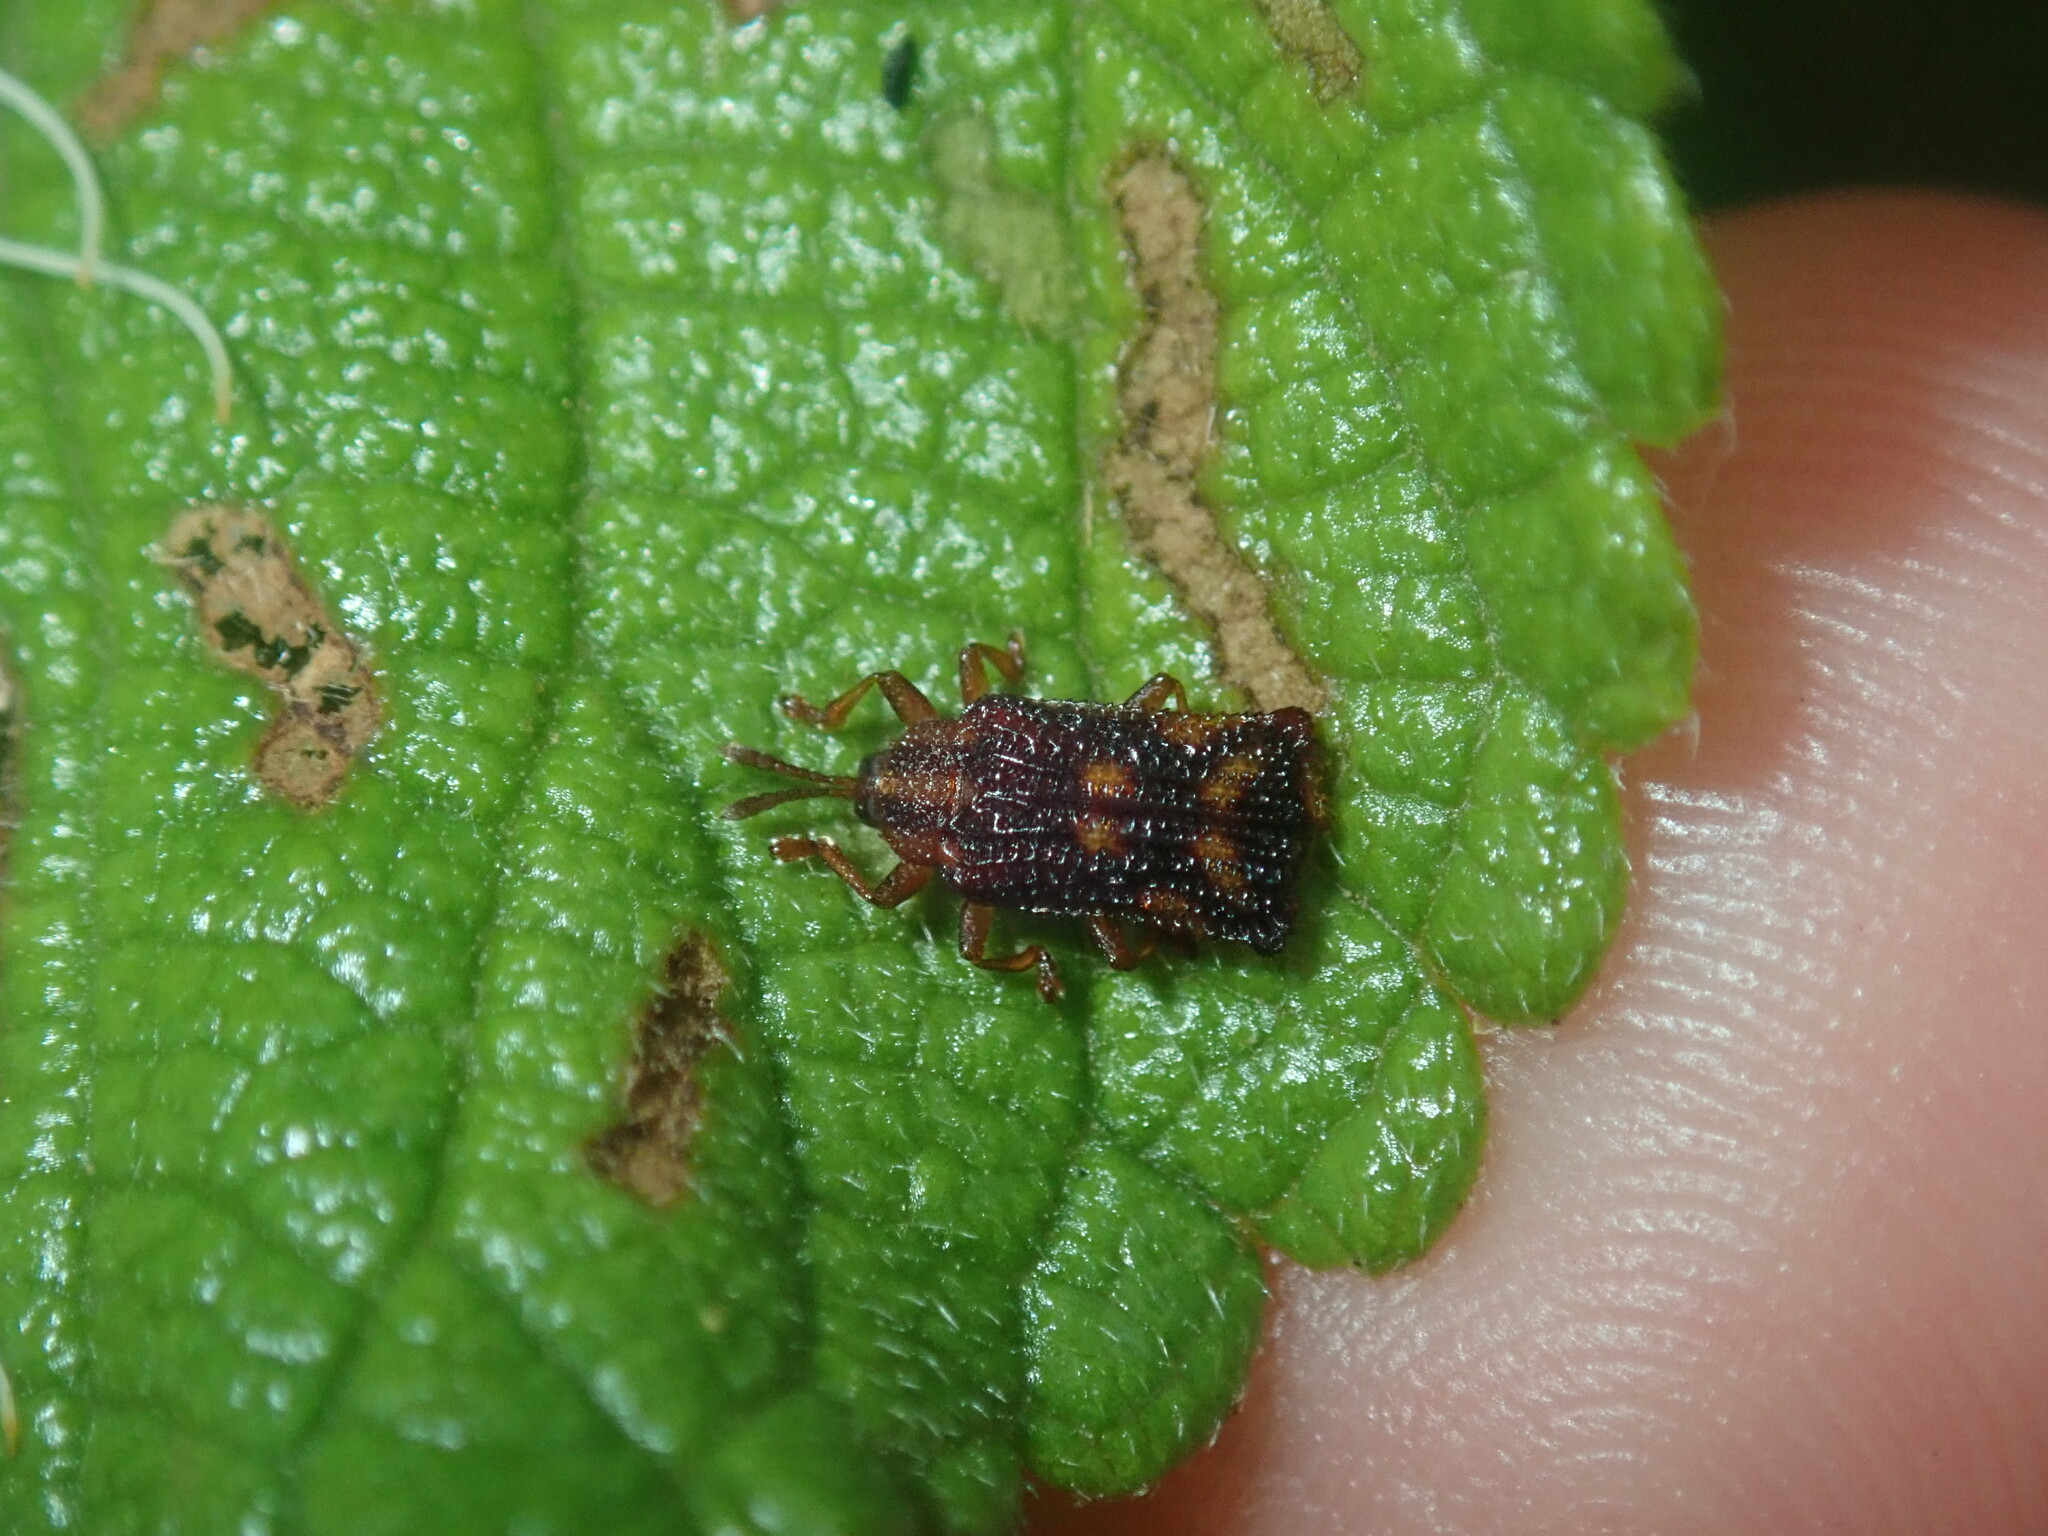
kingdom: Animalia
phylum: Arthropoda
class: Insecta
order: Coleoptera
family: Chrysomelidae
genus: Uroplata
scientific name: Uroplata girardi
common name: Lantana leafminer
